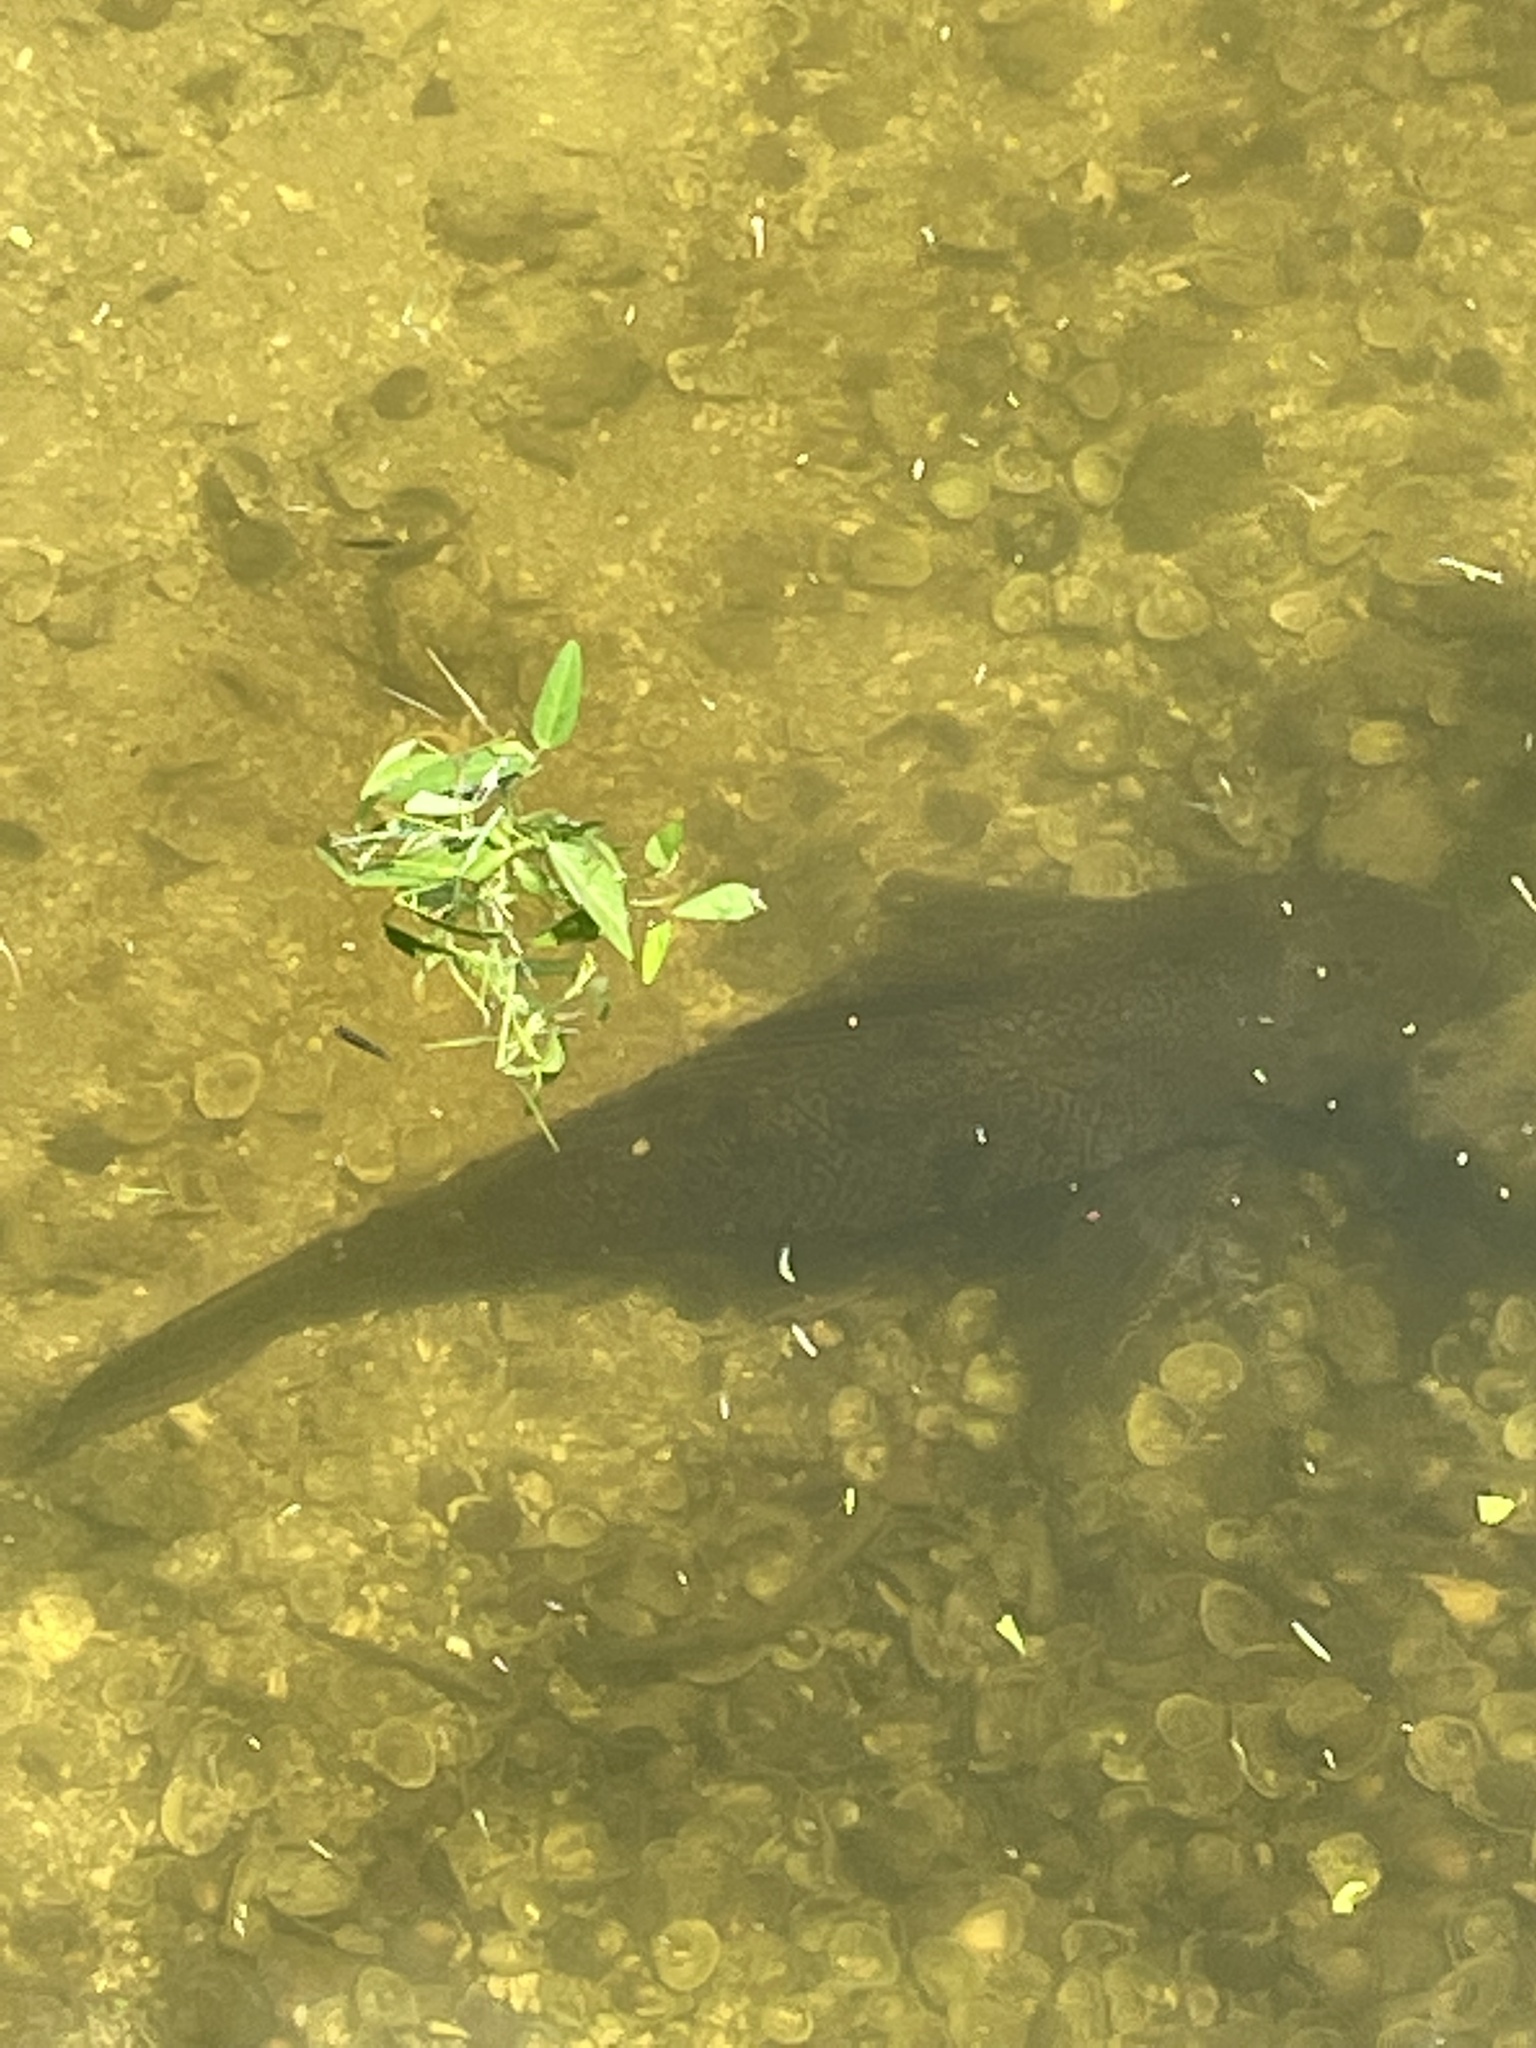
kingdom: Animalia
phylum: Chordata
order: Siluriformes
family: Loricariidae
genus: Pterygoplichthys
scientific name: Pterygoplichthys
